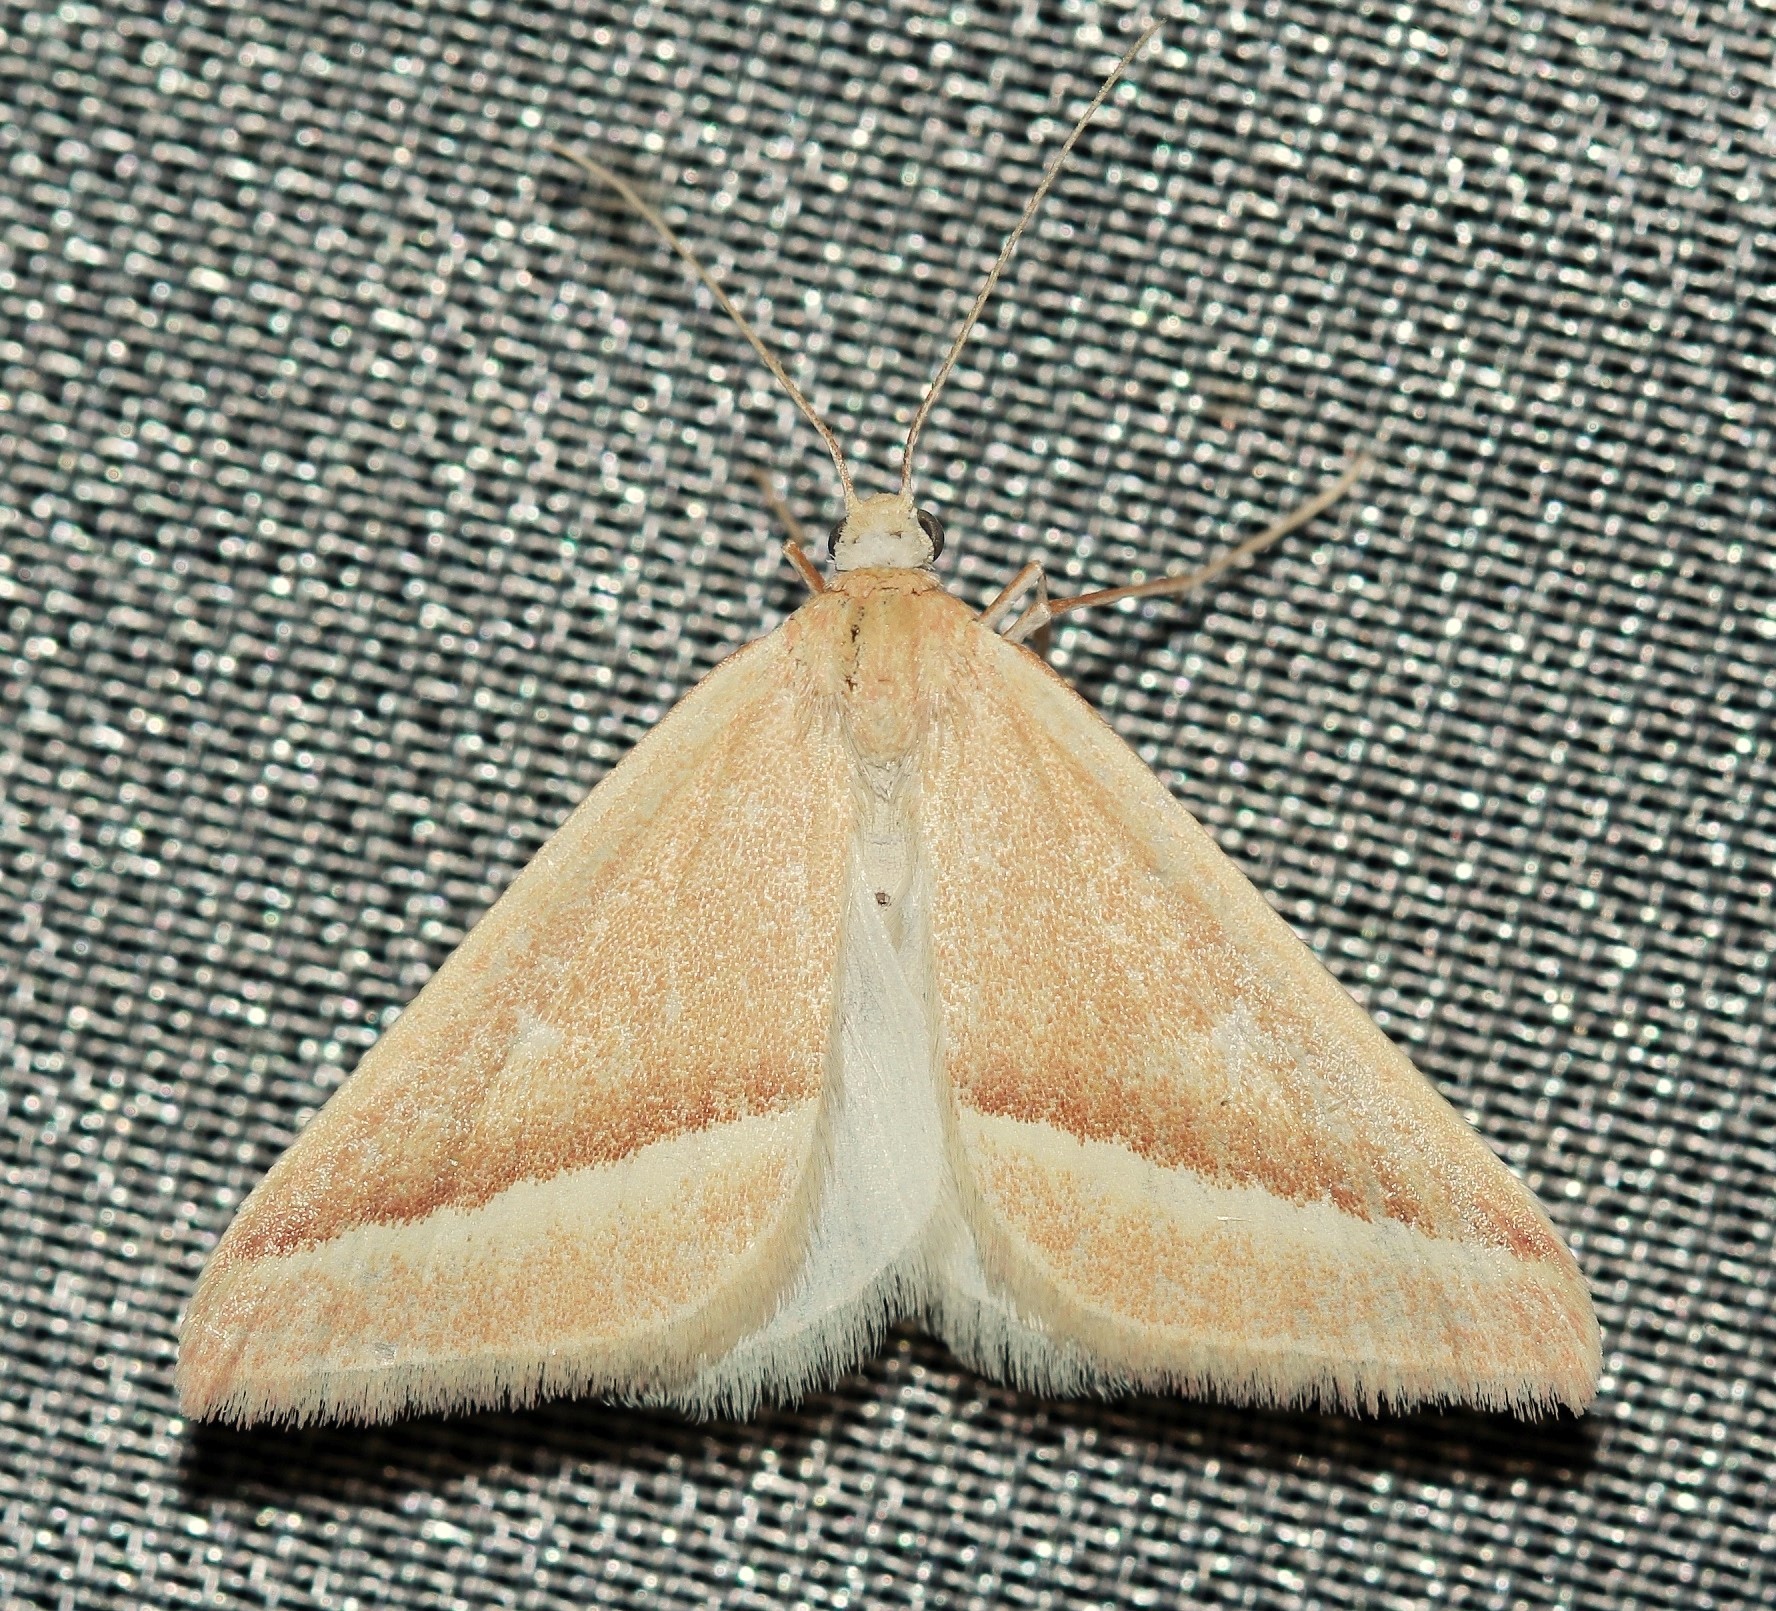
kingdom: Animalia
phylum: Arthropoda
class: Insecta
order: Lepidoptera
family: Geometridae
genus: Casilda
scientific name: Casilda consecraria
